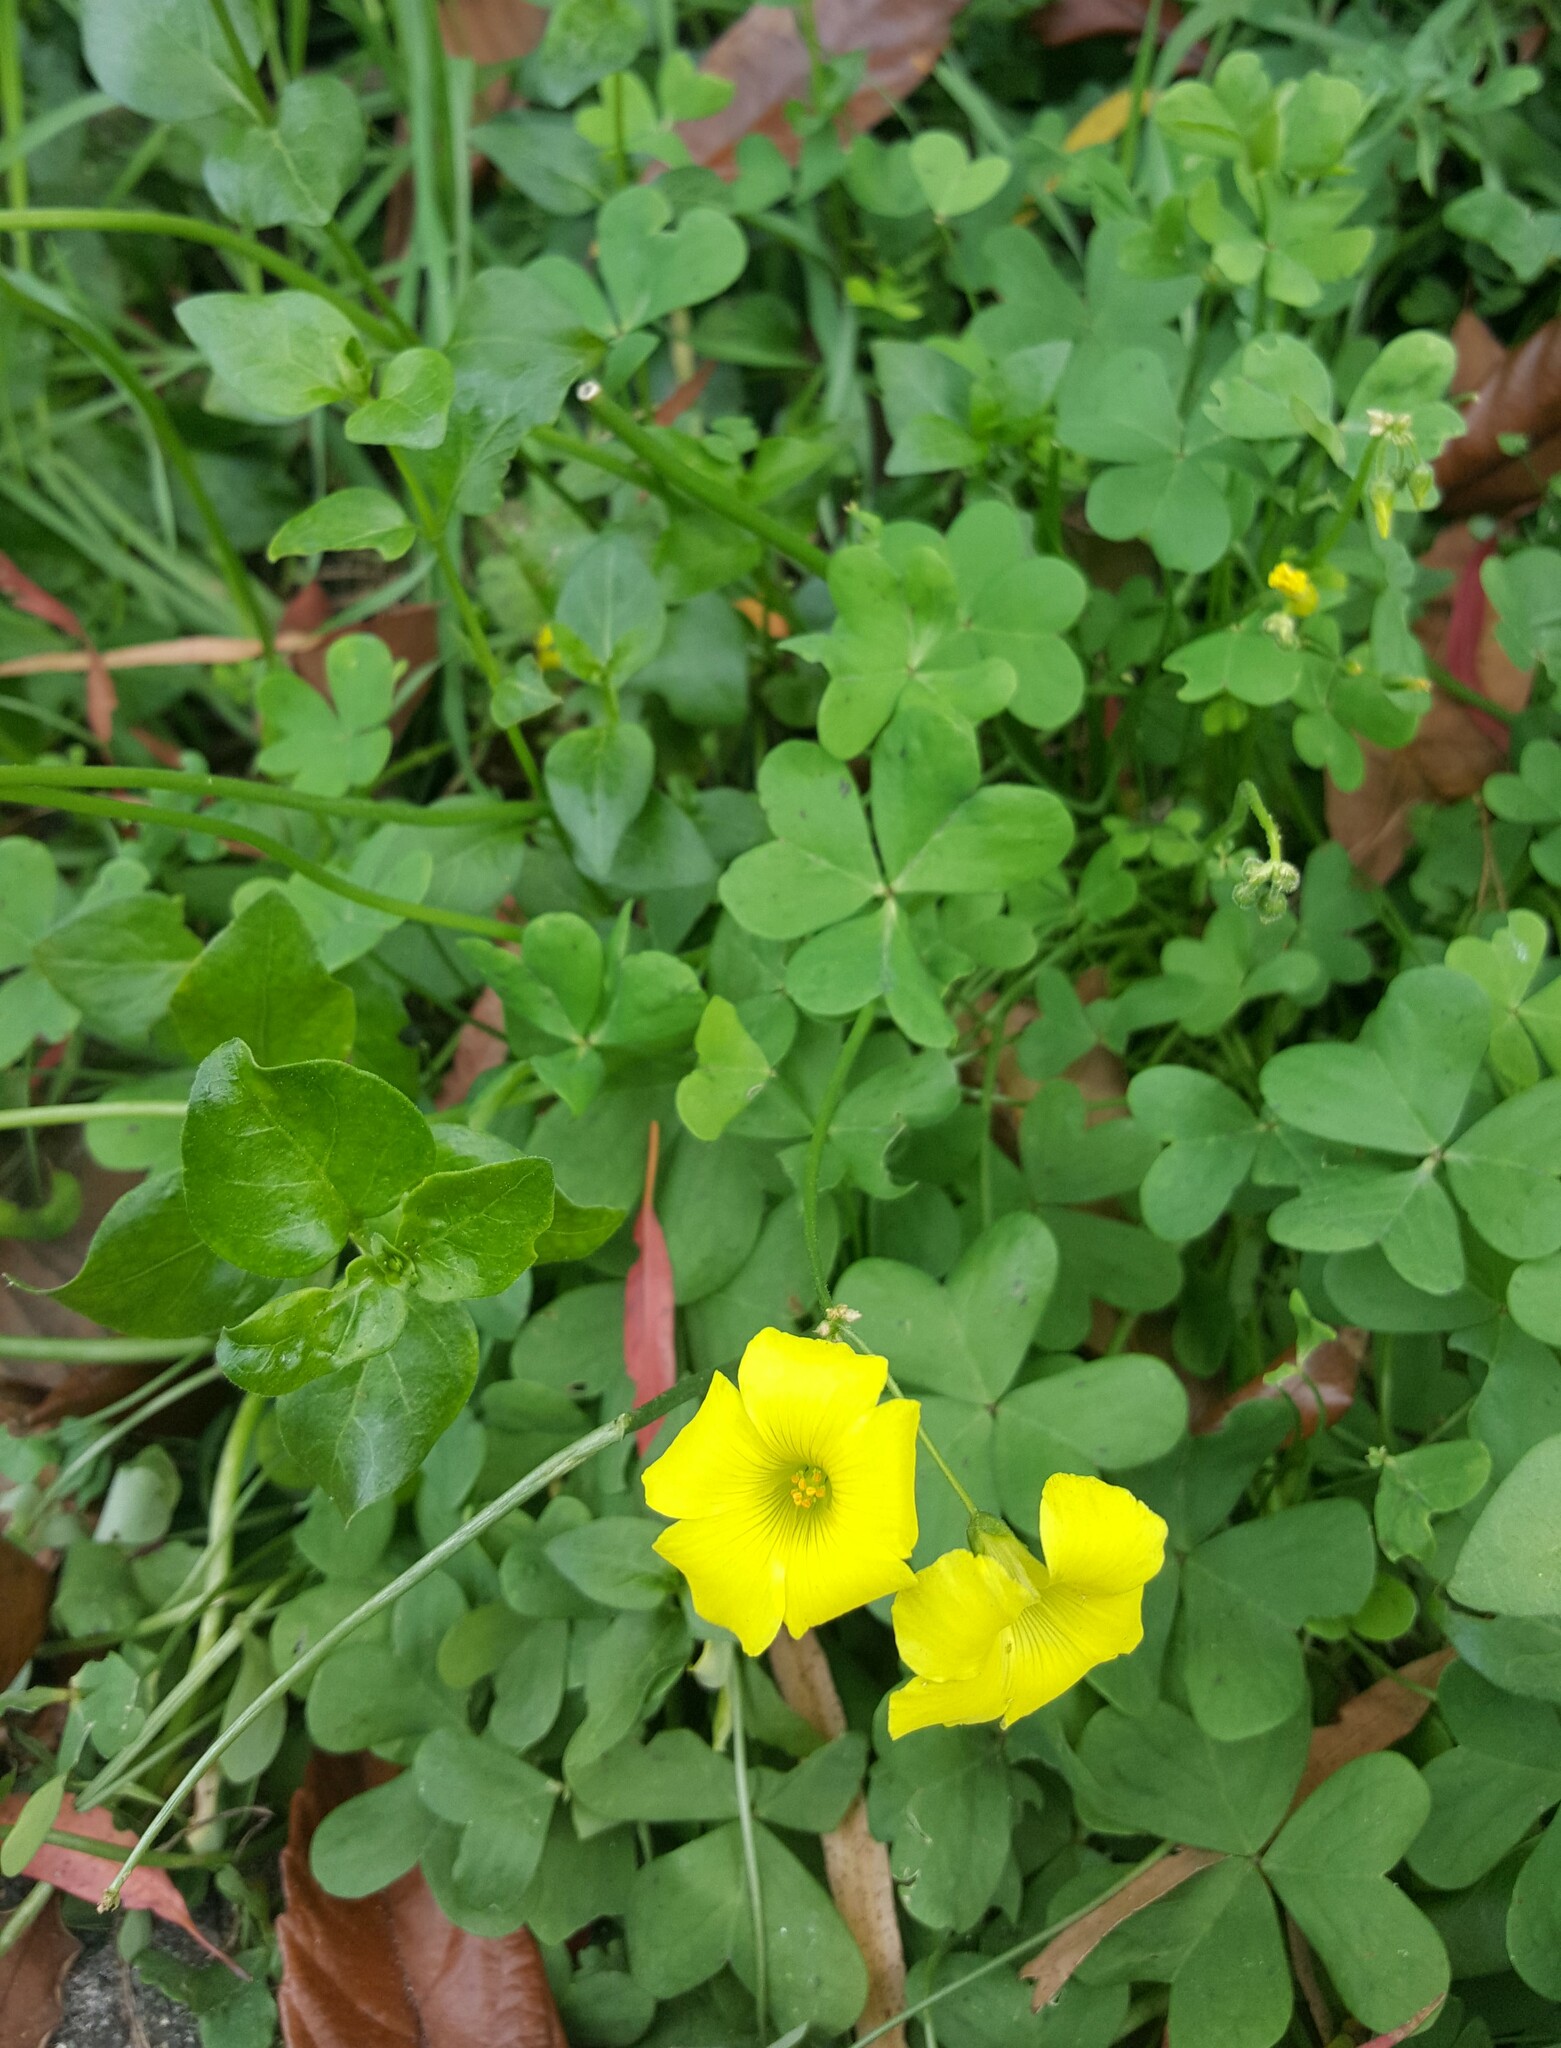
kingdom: Plantae
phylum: Tracheophyta
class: Magnoliopsida
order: Oxalidales
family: Oxalidaceae
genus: Oxalis
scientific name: Oxalis pes-caprae
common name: Bermuda-buttercup
